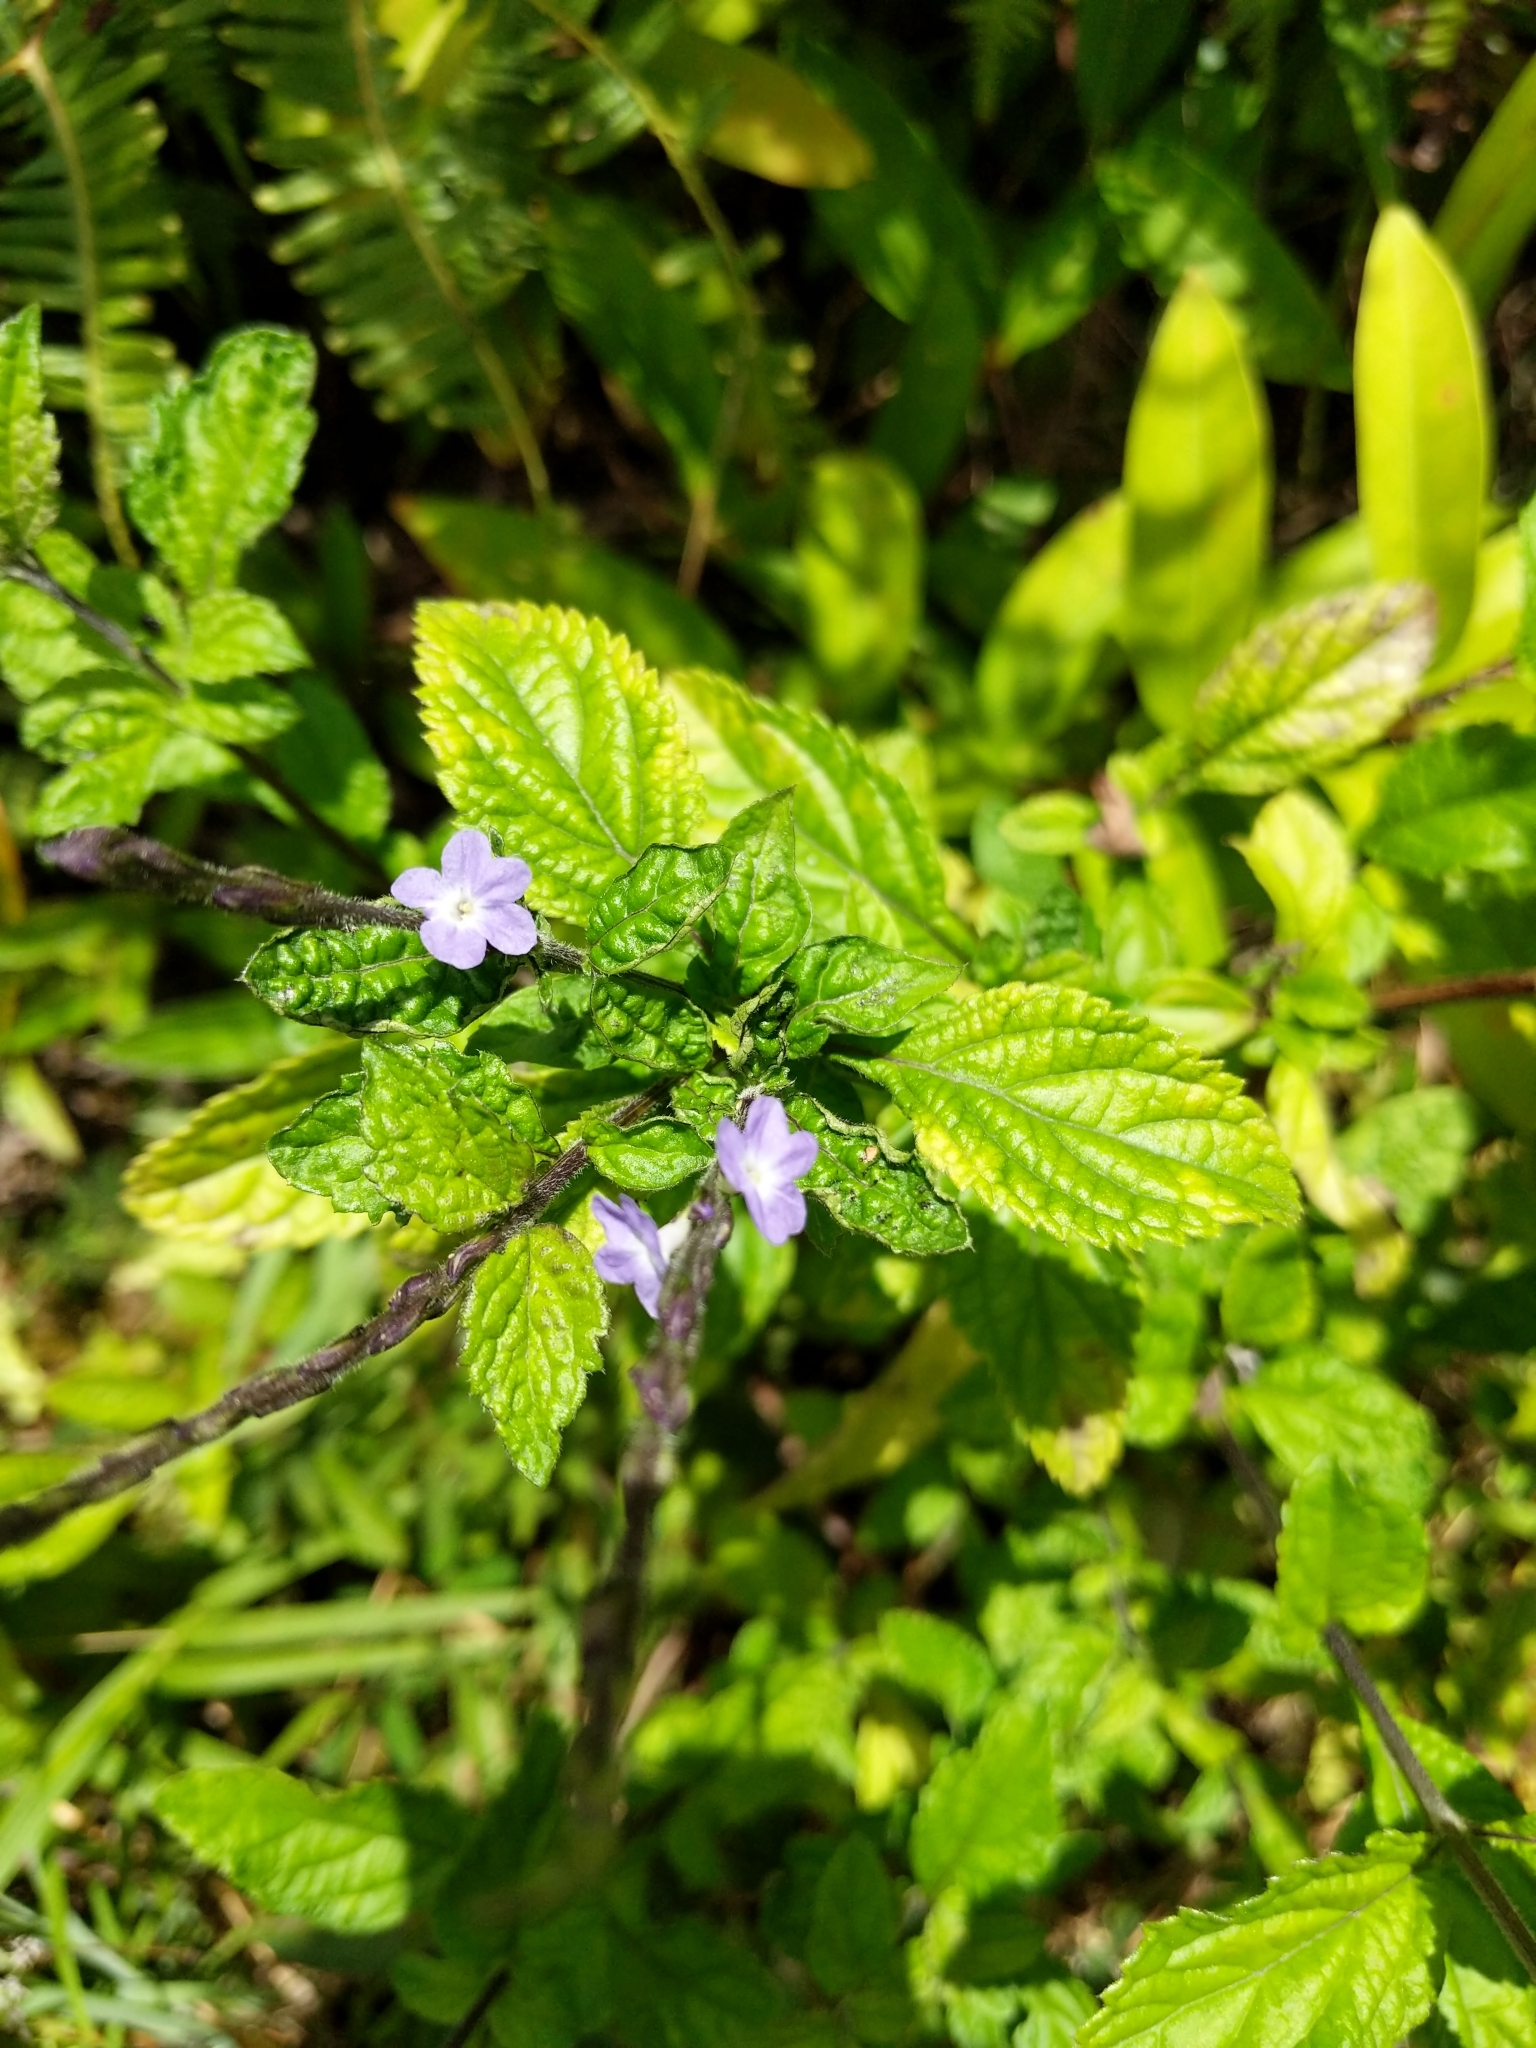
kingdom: Plantae
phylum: Tracheophyta
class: Magnoliopsida
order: Lamiales
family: Verbenaceae
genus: Stachytarpheta
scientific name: Stachytarpheta cayennensis
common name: Cayenne porterweed
